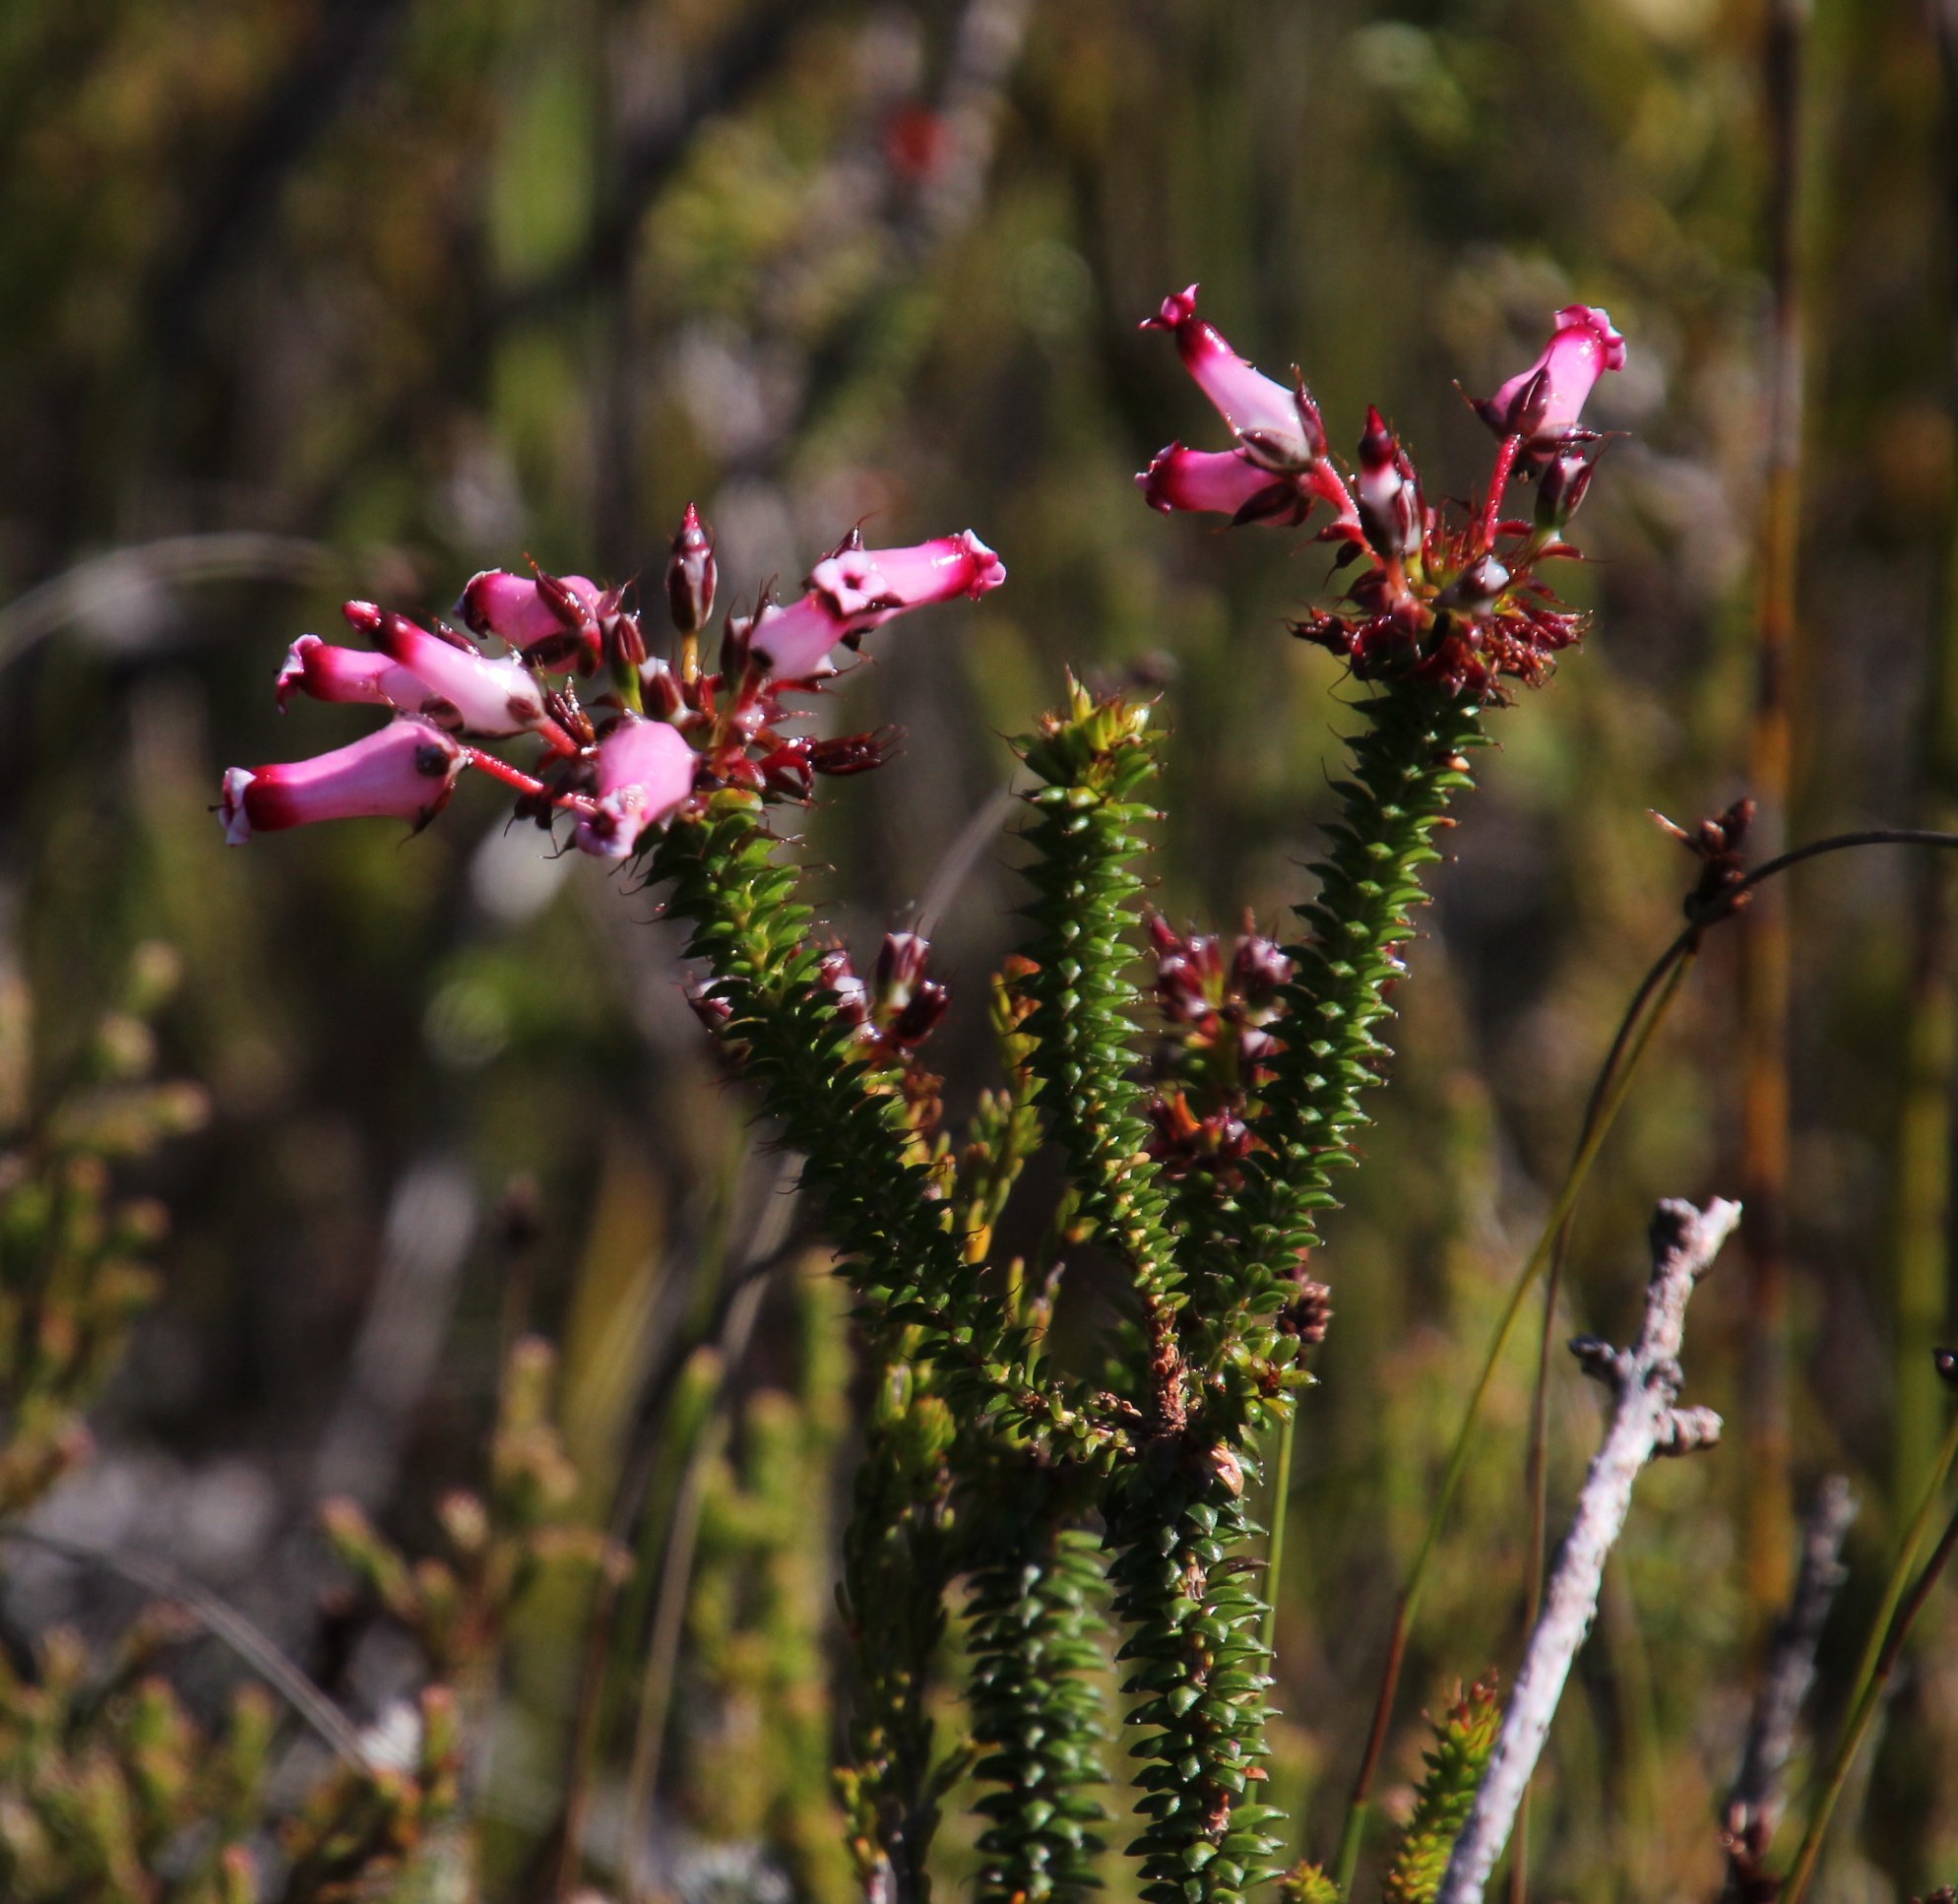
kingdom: Plantae
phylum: Tracheophyta
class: Magnoliopsida
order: Ericales
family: Ericaceae
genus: Erica
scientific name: Erica retorta
